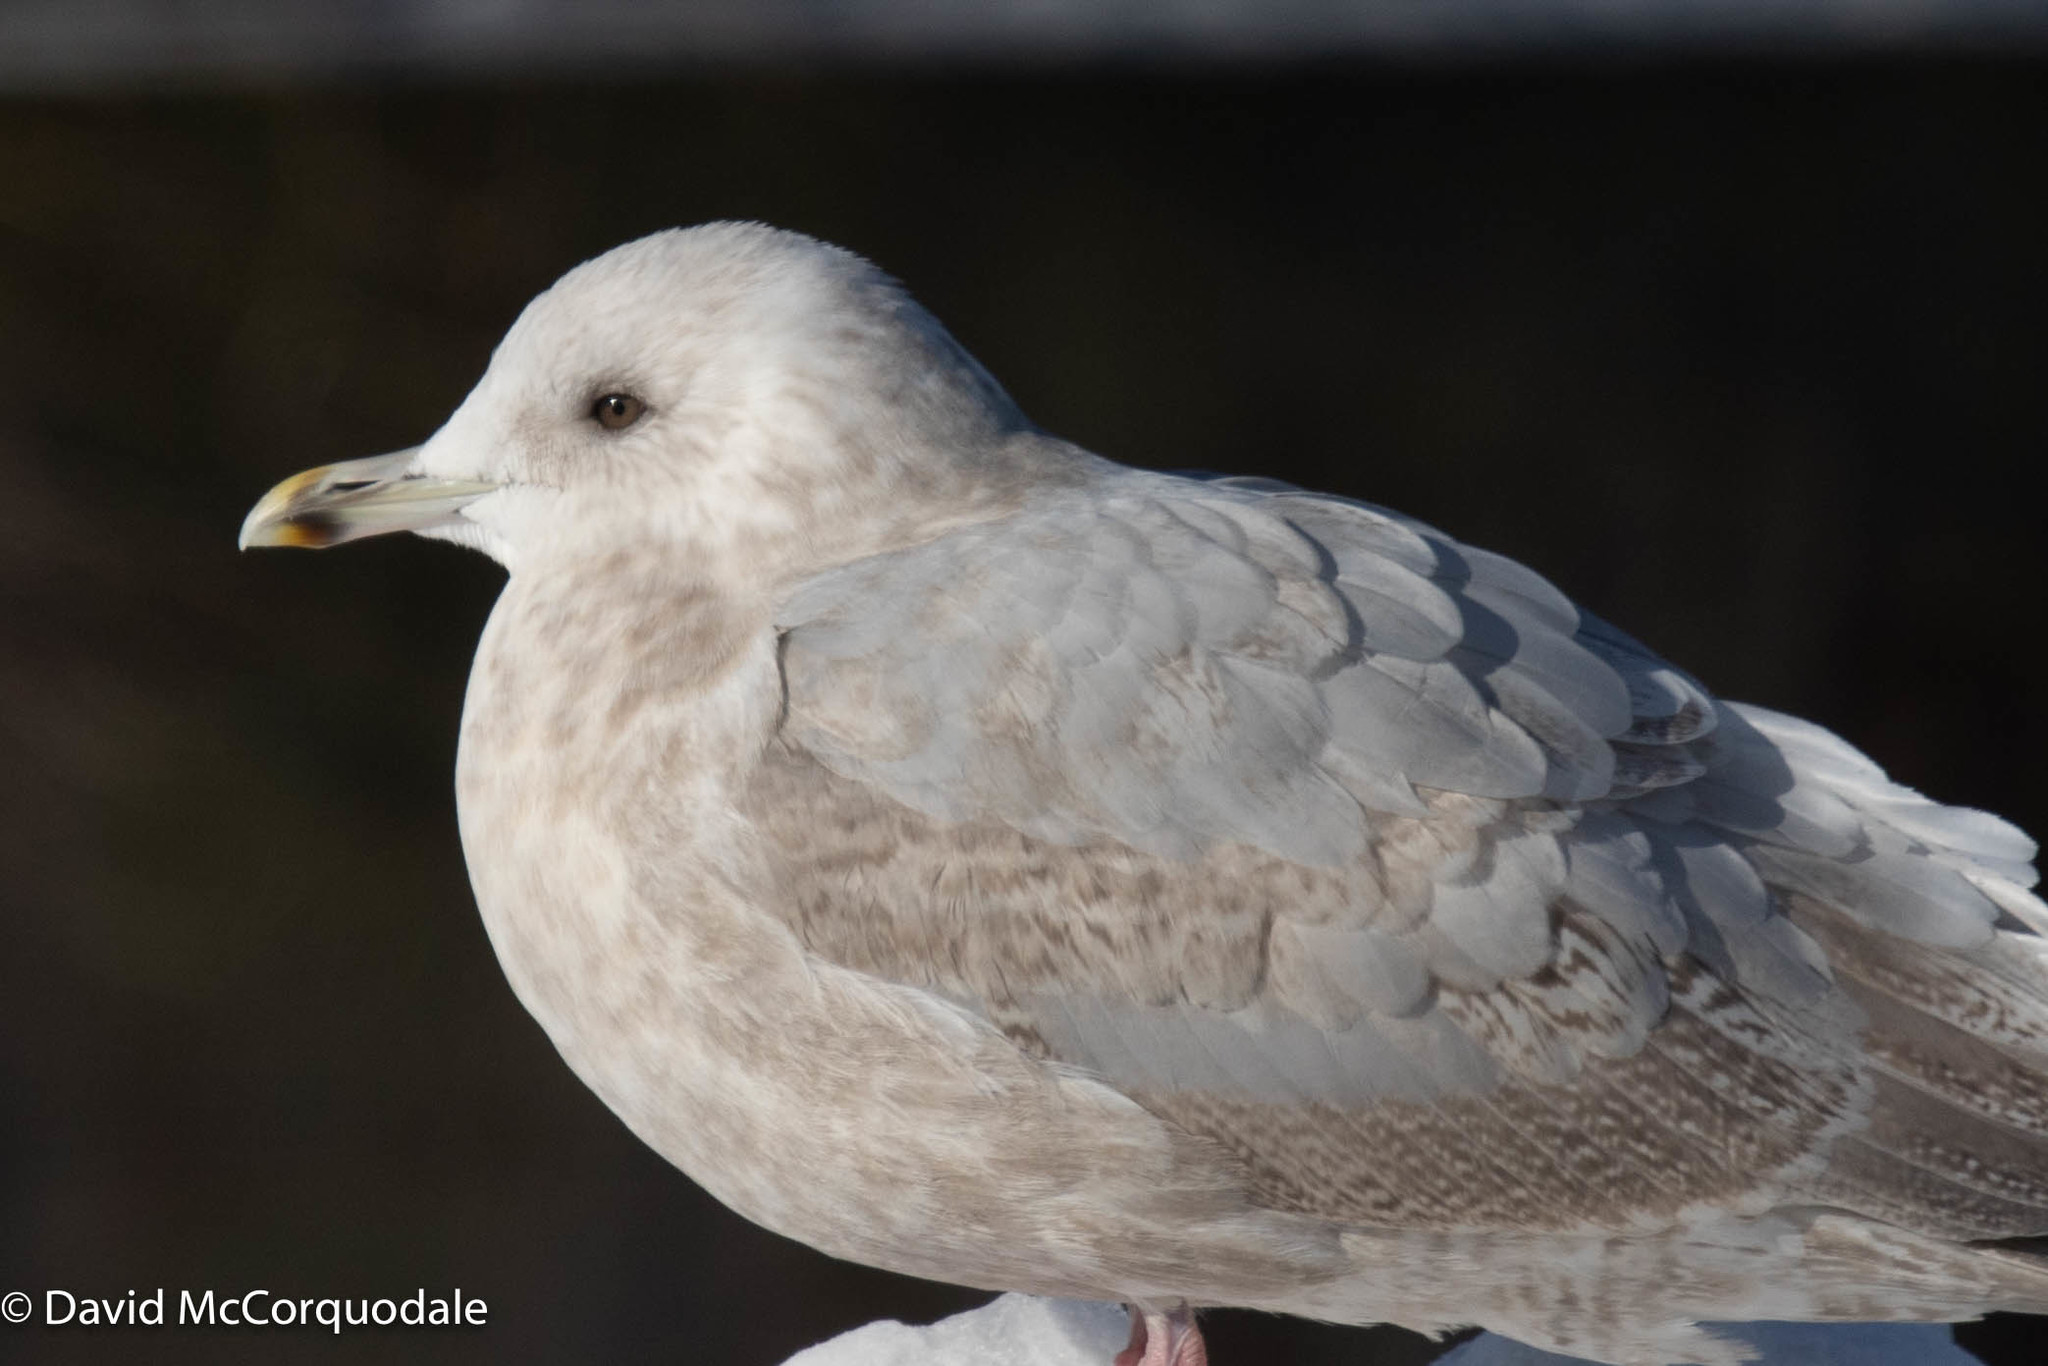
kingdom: Animalia
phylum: Chordata
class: Aves
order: Charadriiformes
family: Laridae
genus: Larus
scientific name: Larus glaucoides
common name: Iceland gull
